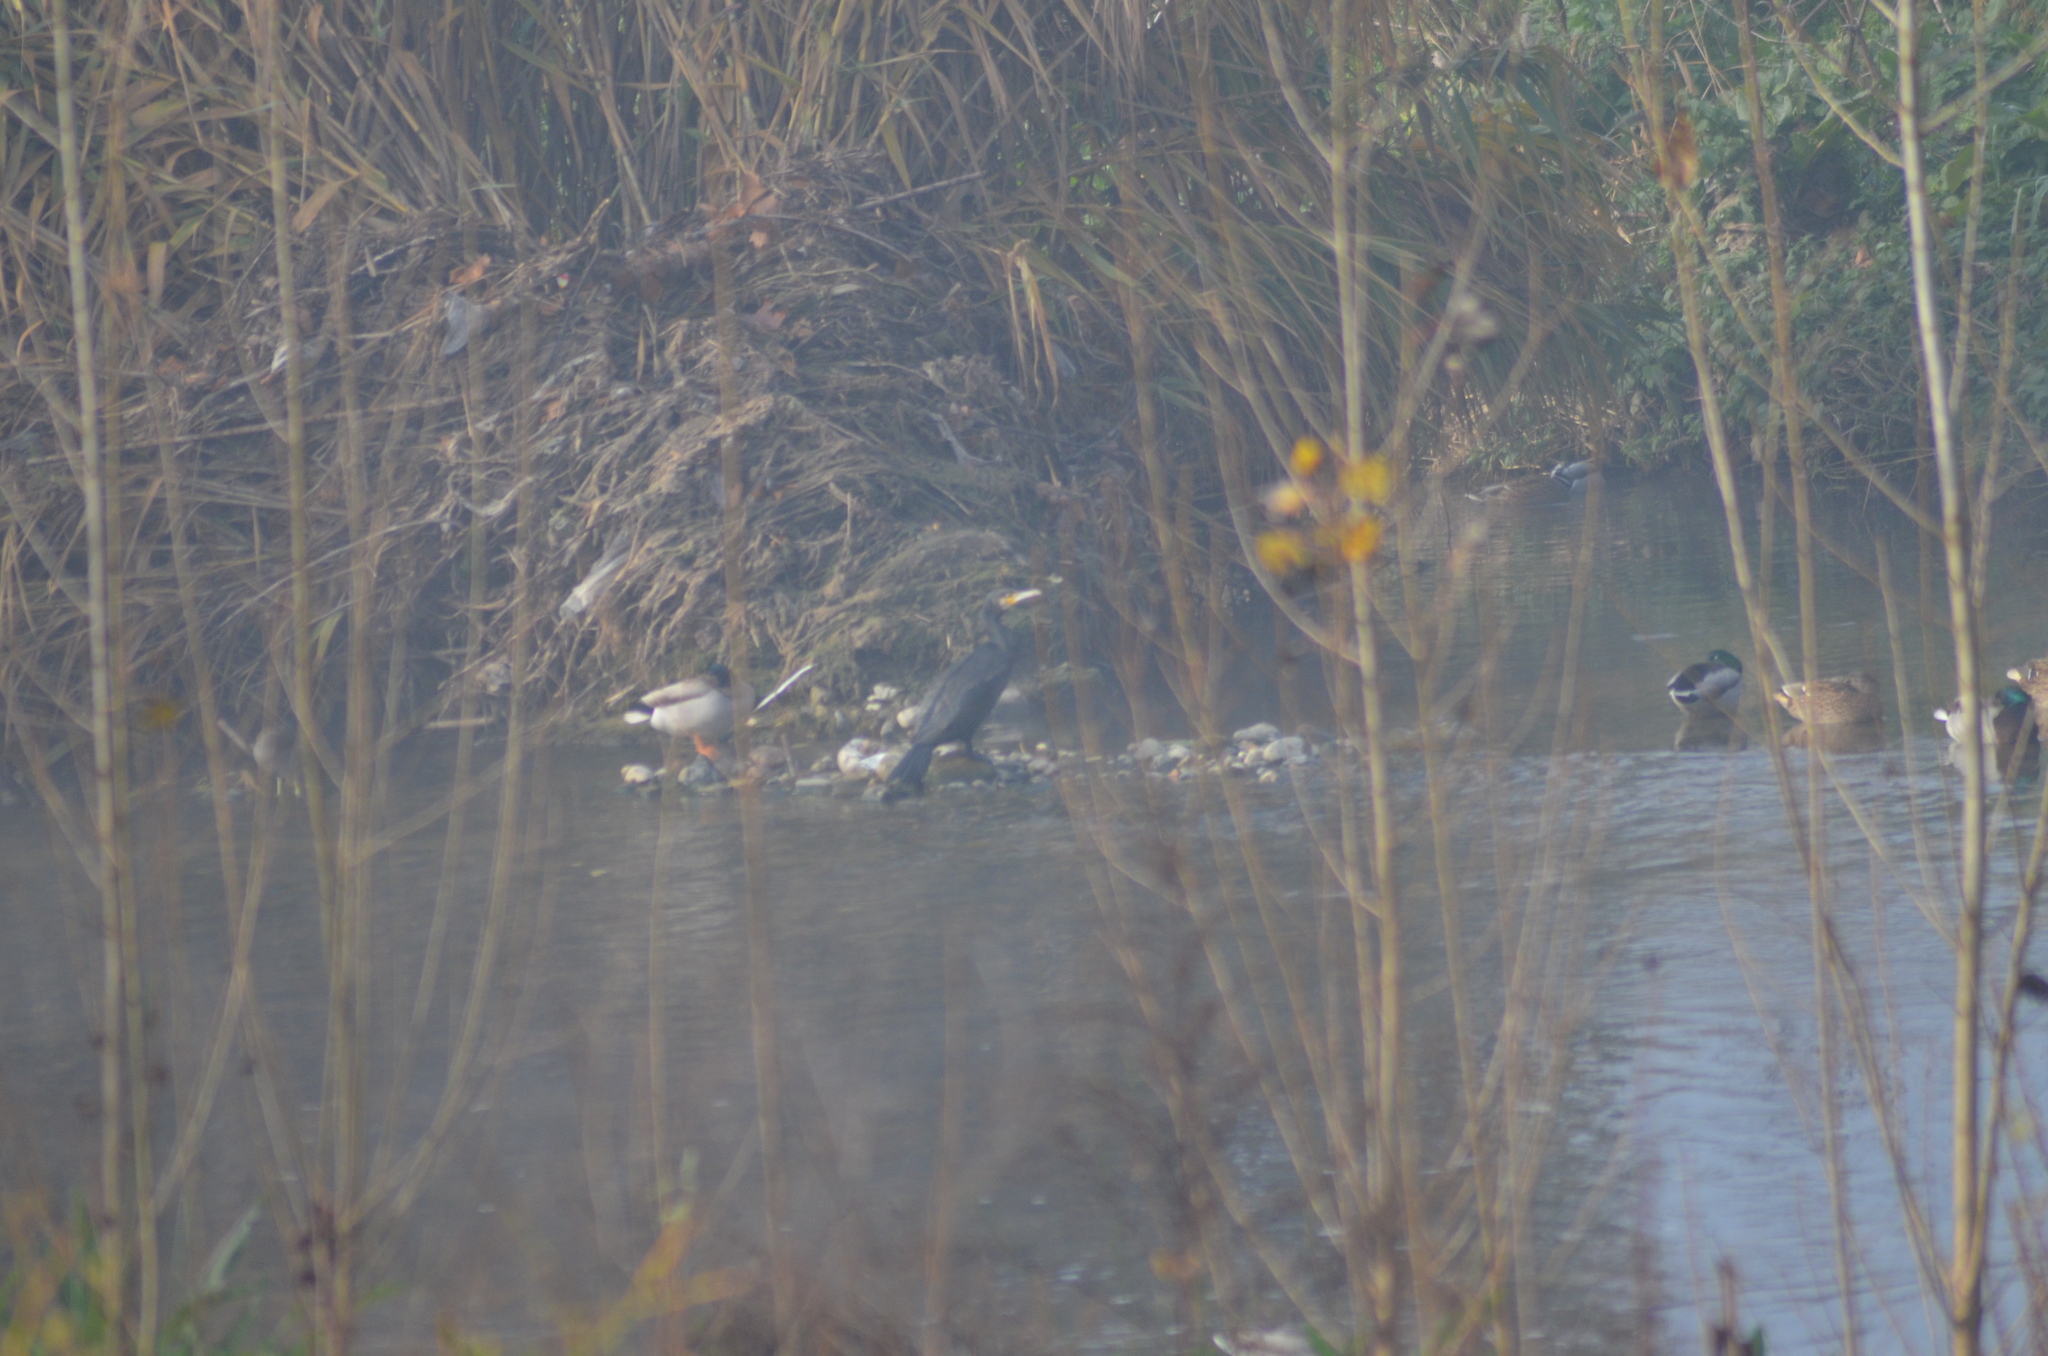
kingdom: Animalia
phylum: Chordata
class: Aves
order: Suliformes
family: Phalacrocoracidae
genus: Phalacrocorax
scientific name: Phalacrocorax carbo
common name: Great cormorant
